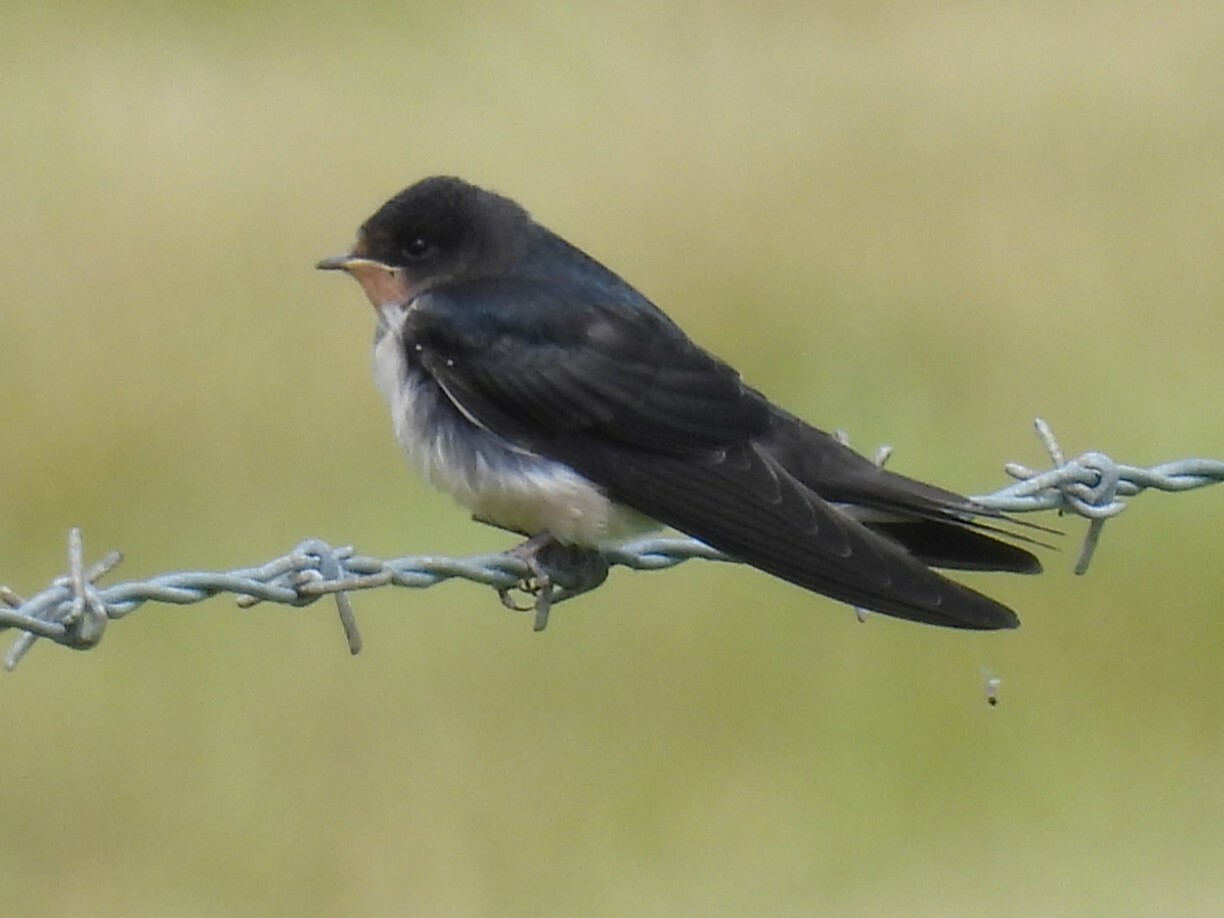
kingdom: Animalia
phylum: Chordata
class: Aves
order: Passeriformes
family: Hirundinidae
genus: Hirundo
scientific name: Hirundo rustica
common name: Barn swallow
